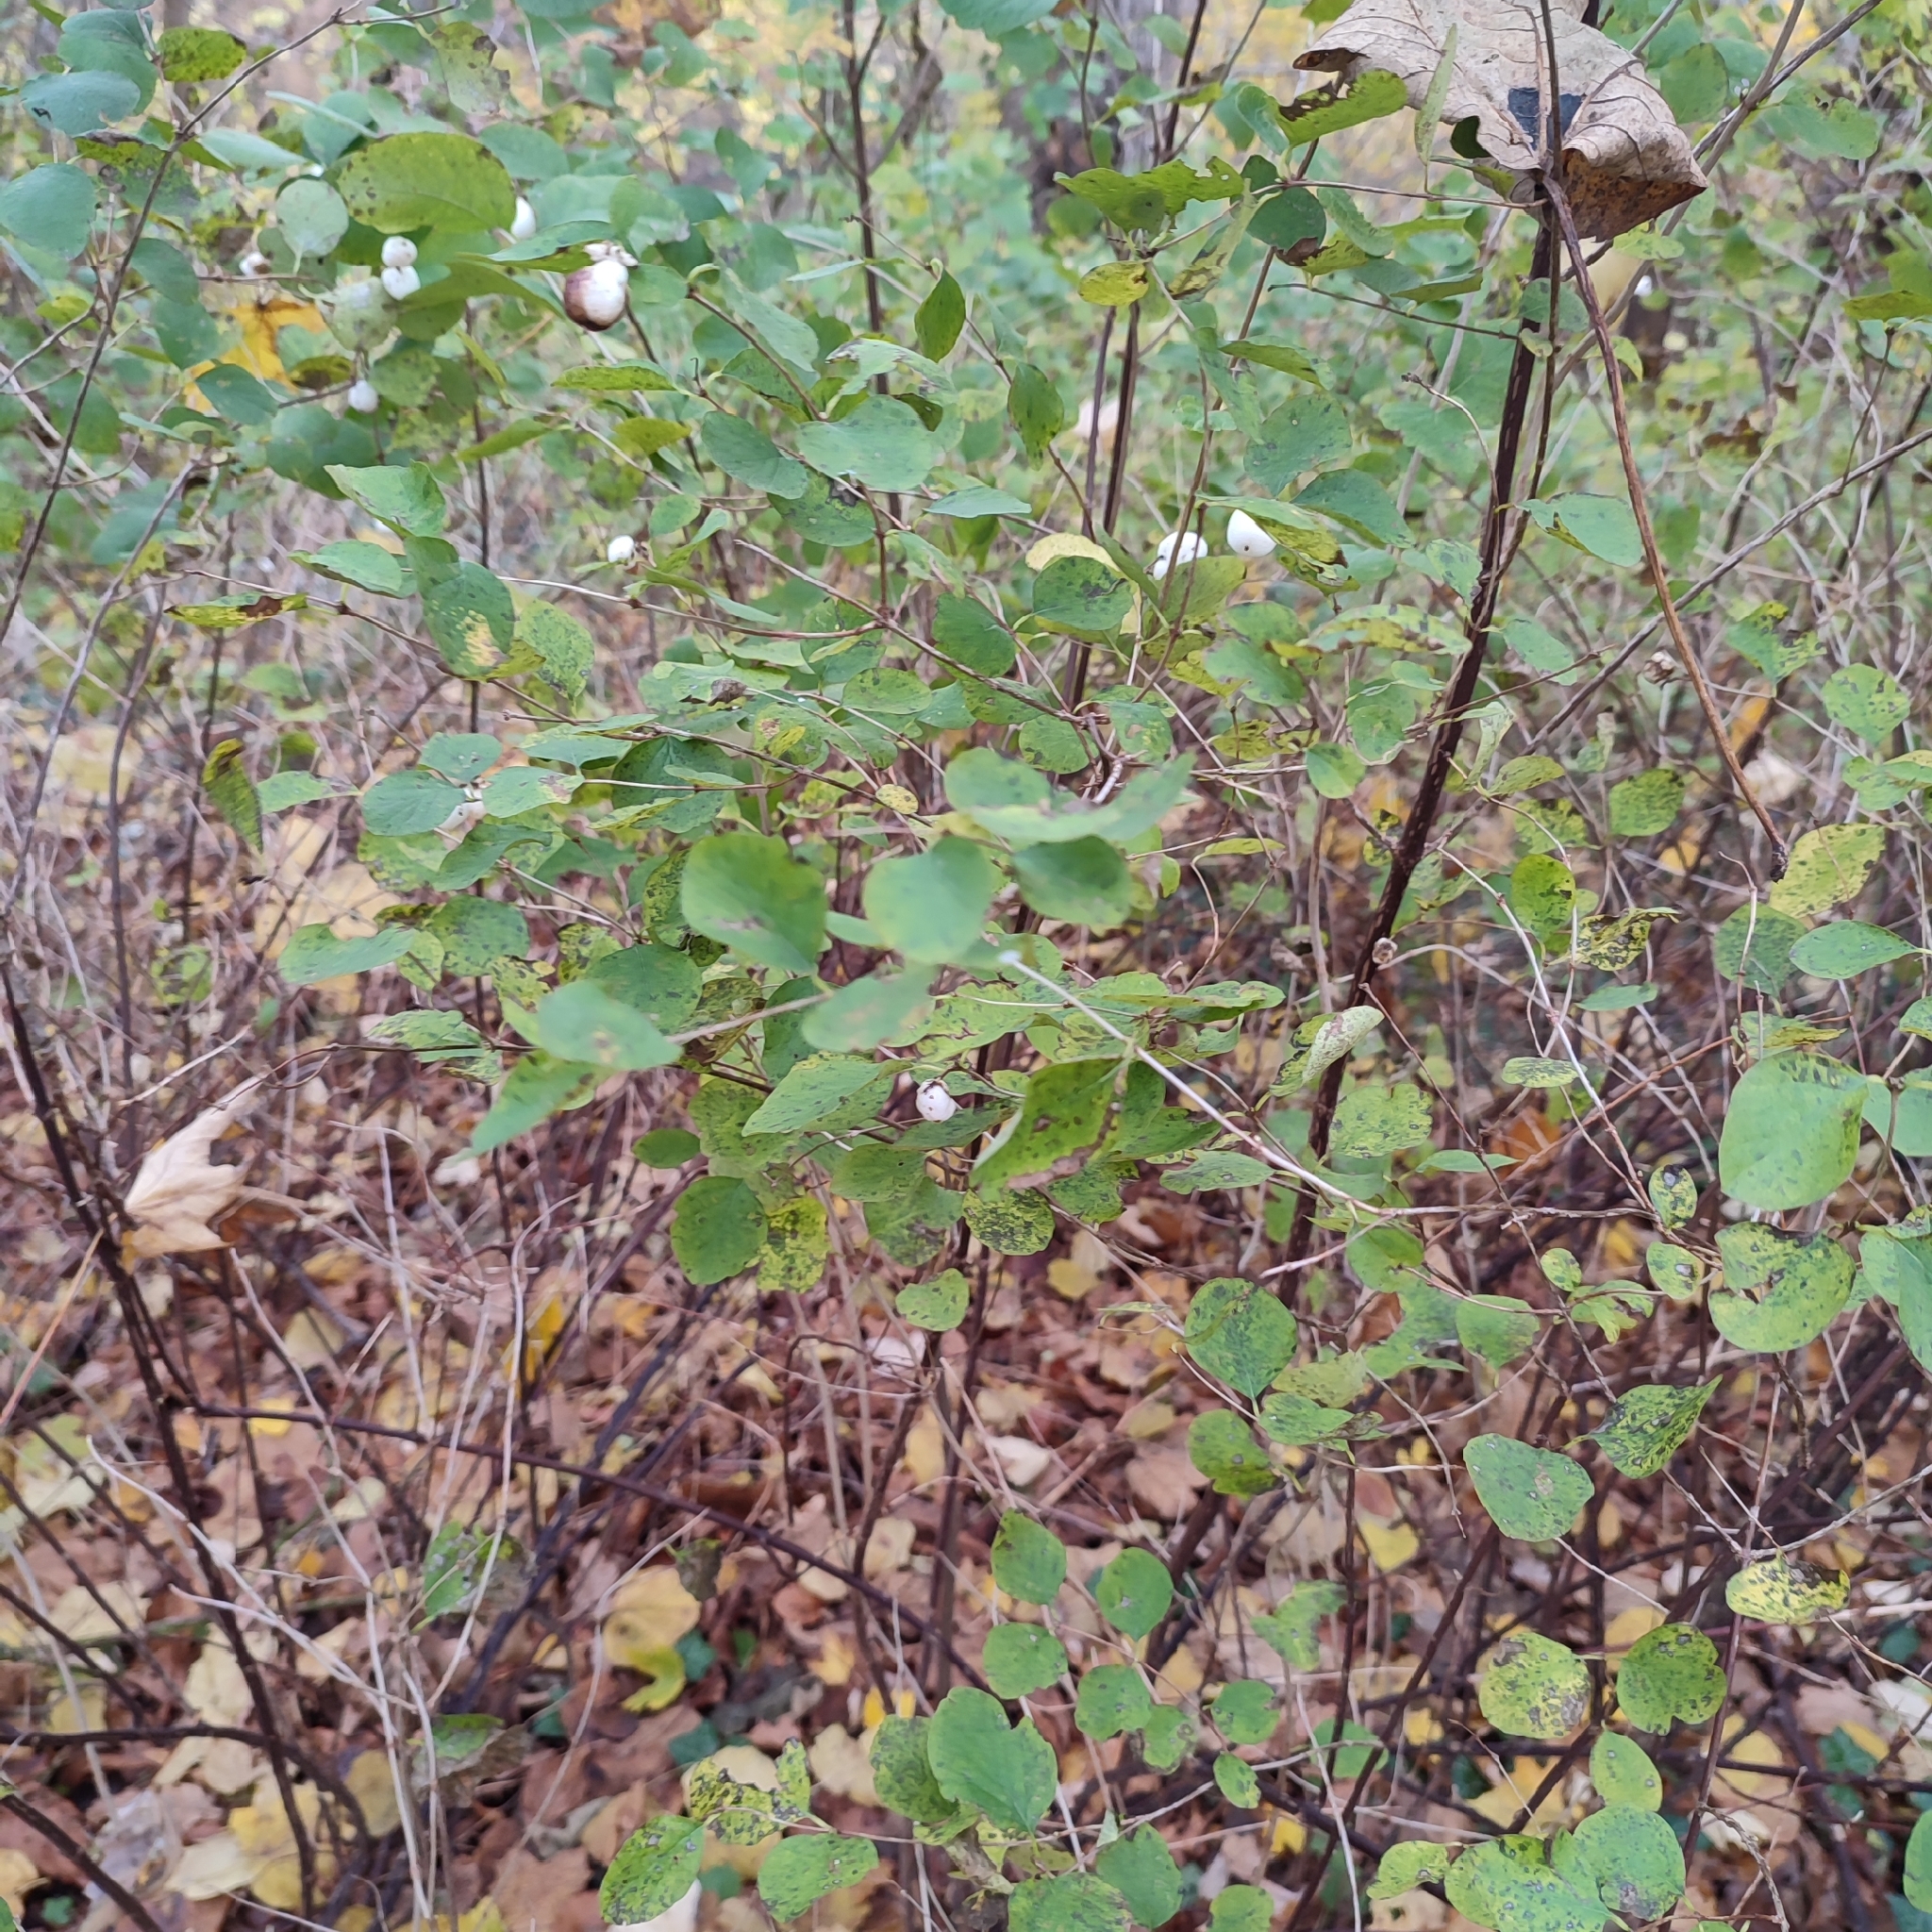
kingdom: Plantae
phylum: Tracheophyta
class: Magnoliopsida
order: Dipsacales
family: Caprifoliaceae
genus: Symphoricarpos
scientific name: Symphoricarpos albus
